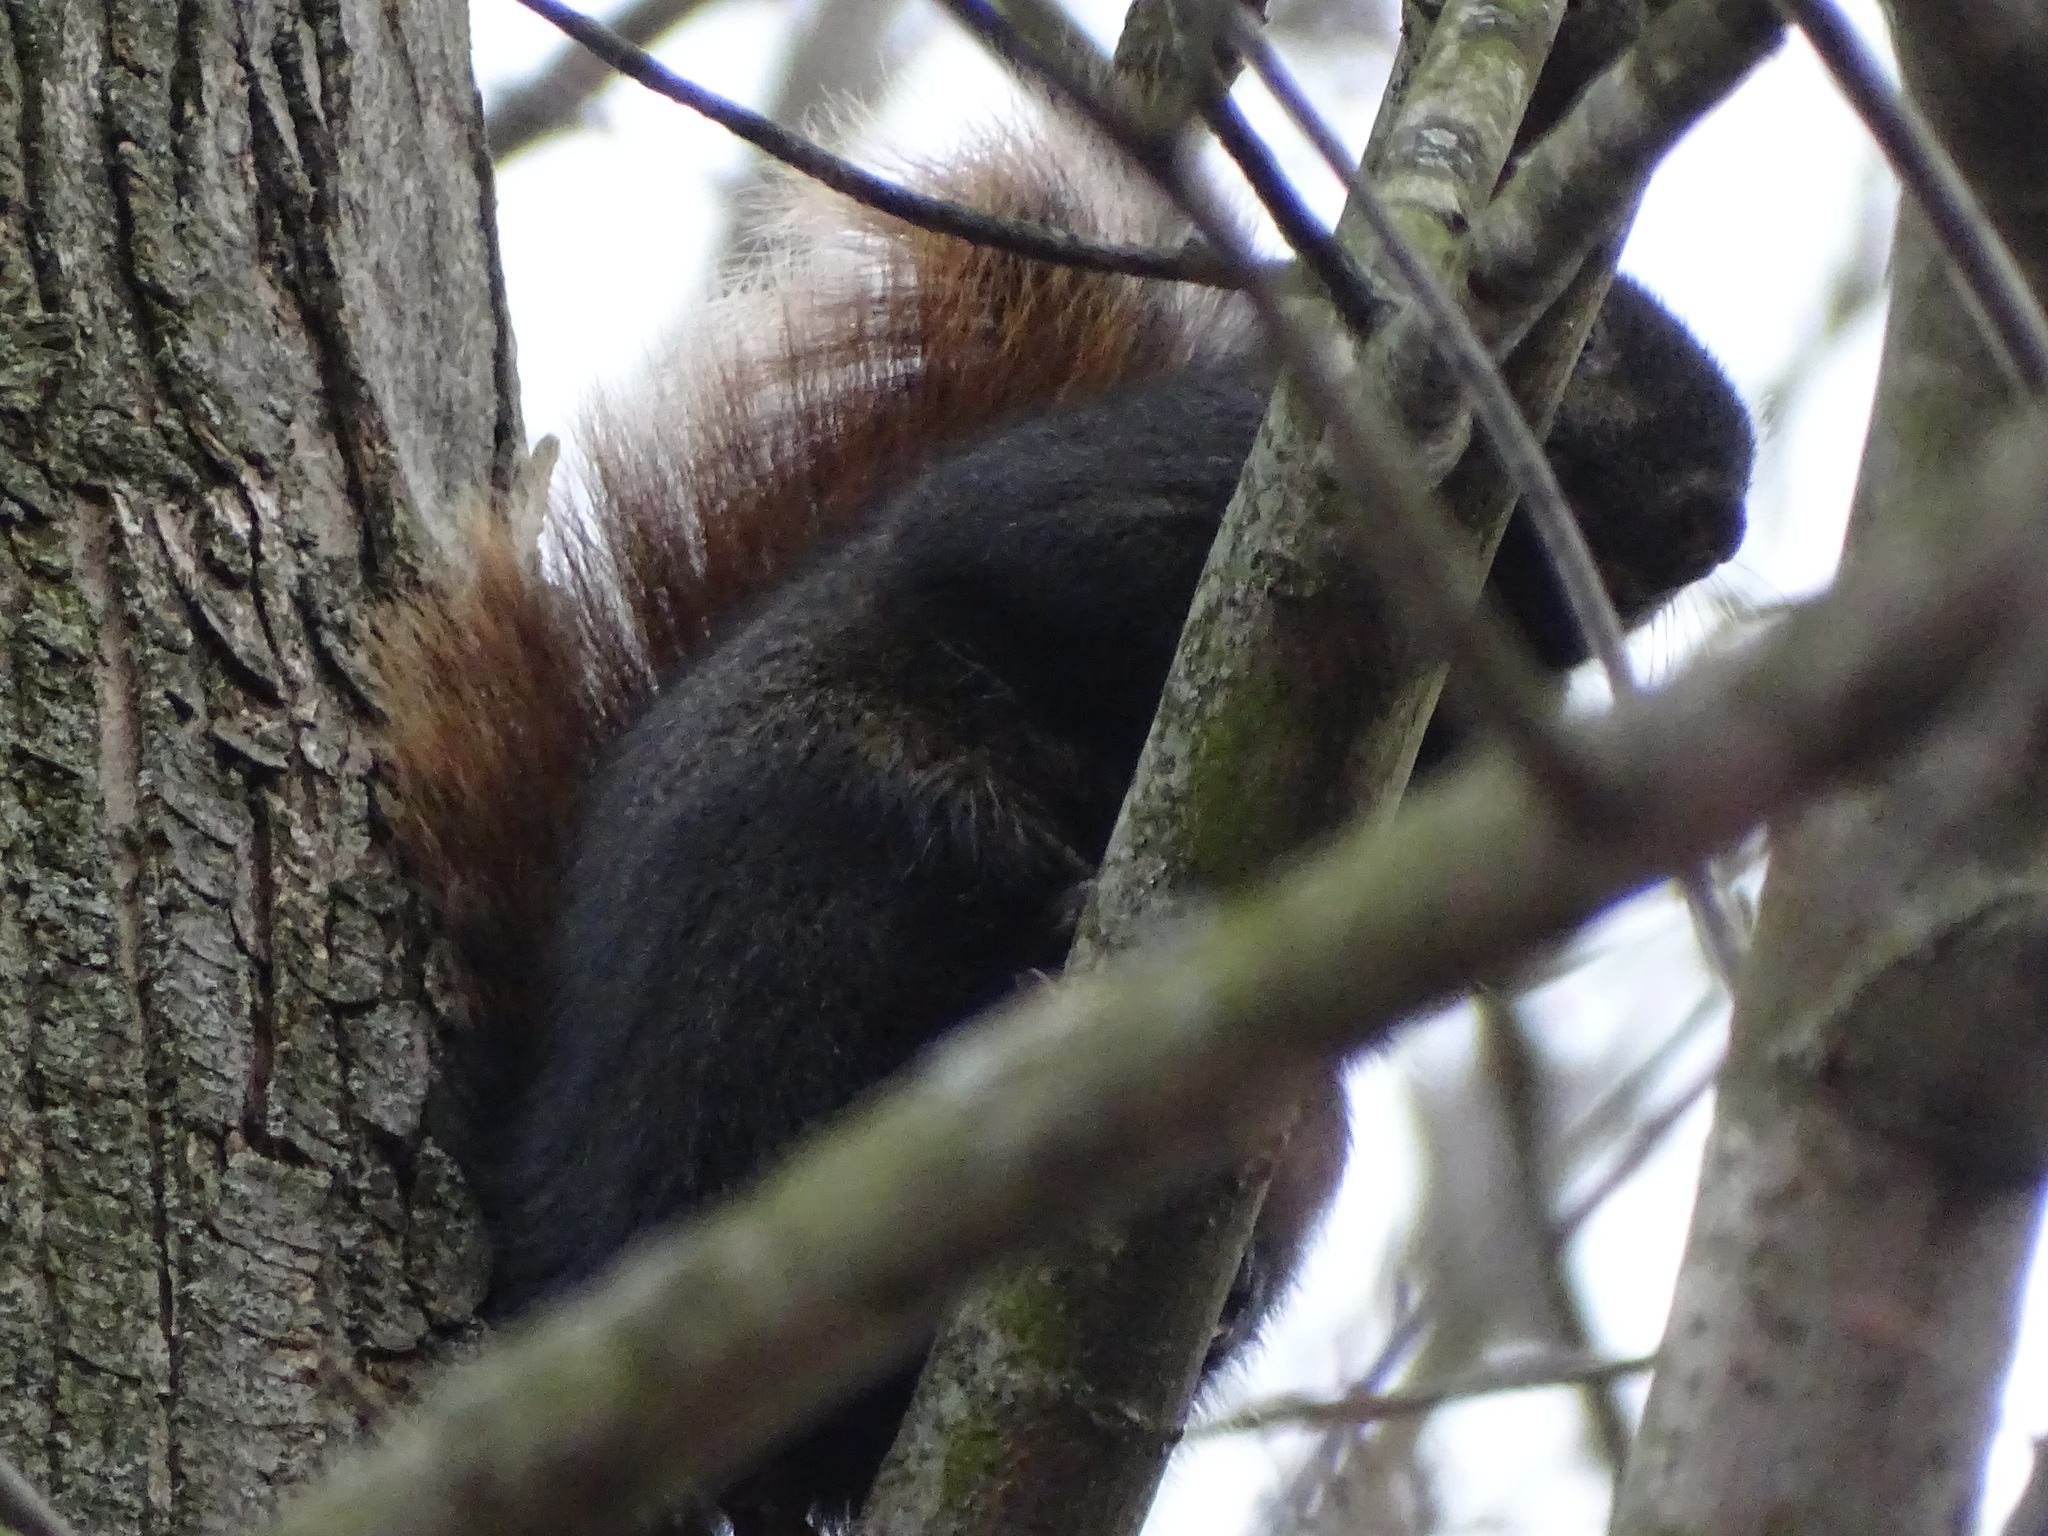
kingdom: Animalia
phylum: Chordata
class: Mammalia
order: Rodentia
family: Sciuridae
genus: Sciurus
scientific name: Sciurus niger
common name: Fox squirrel
